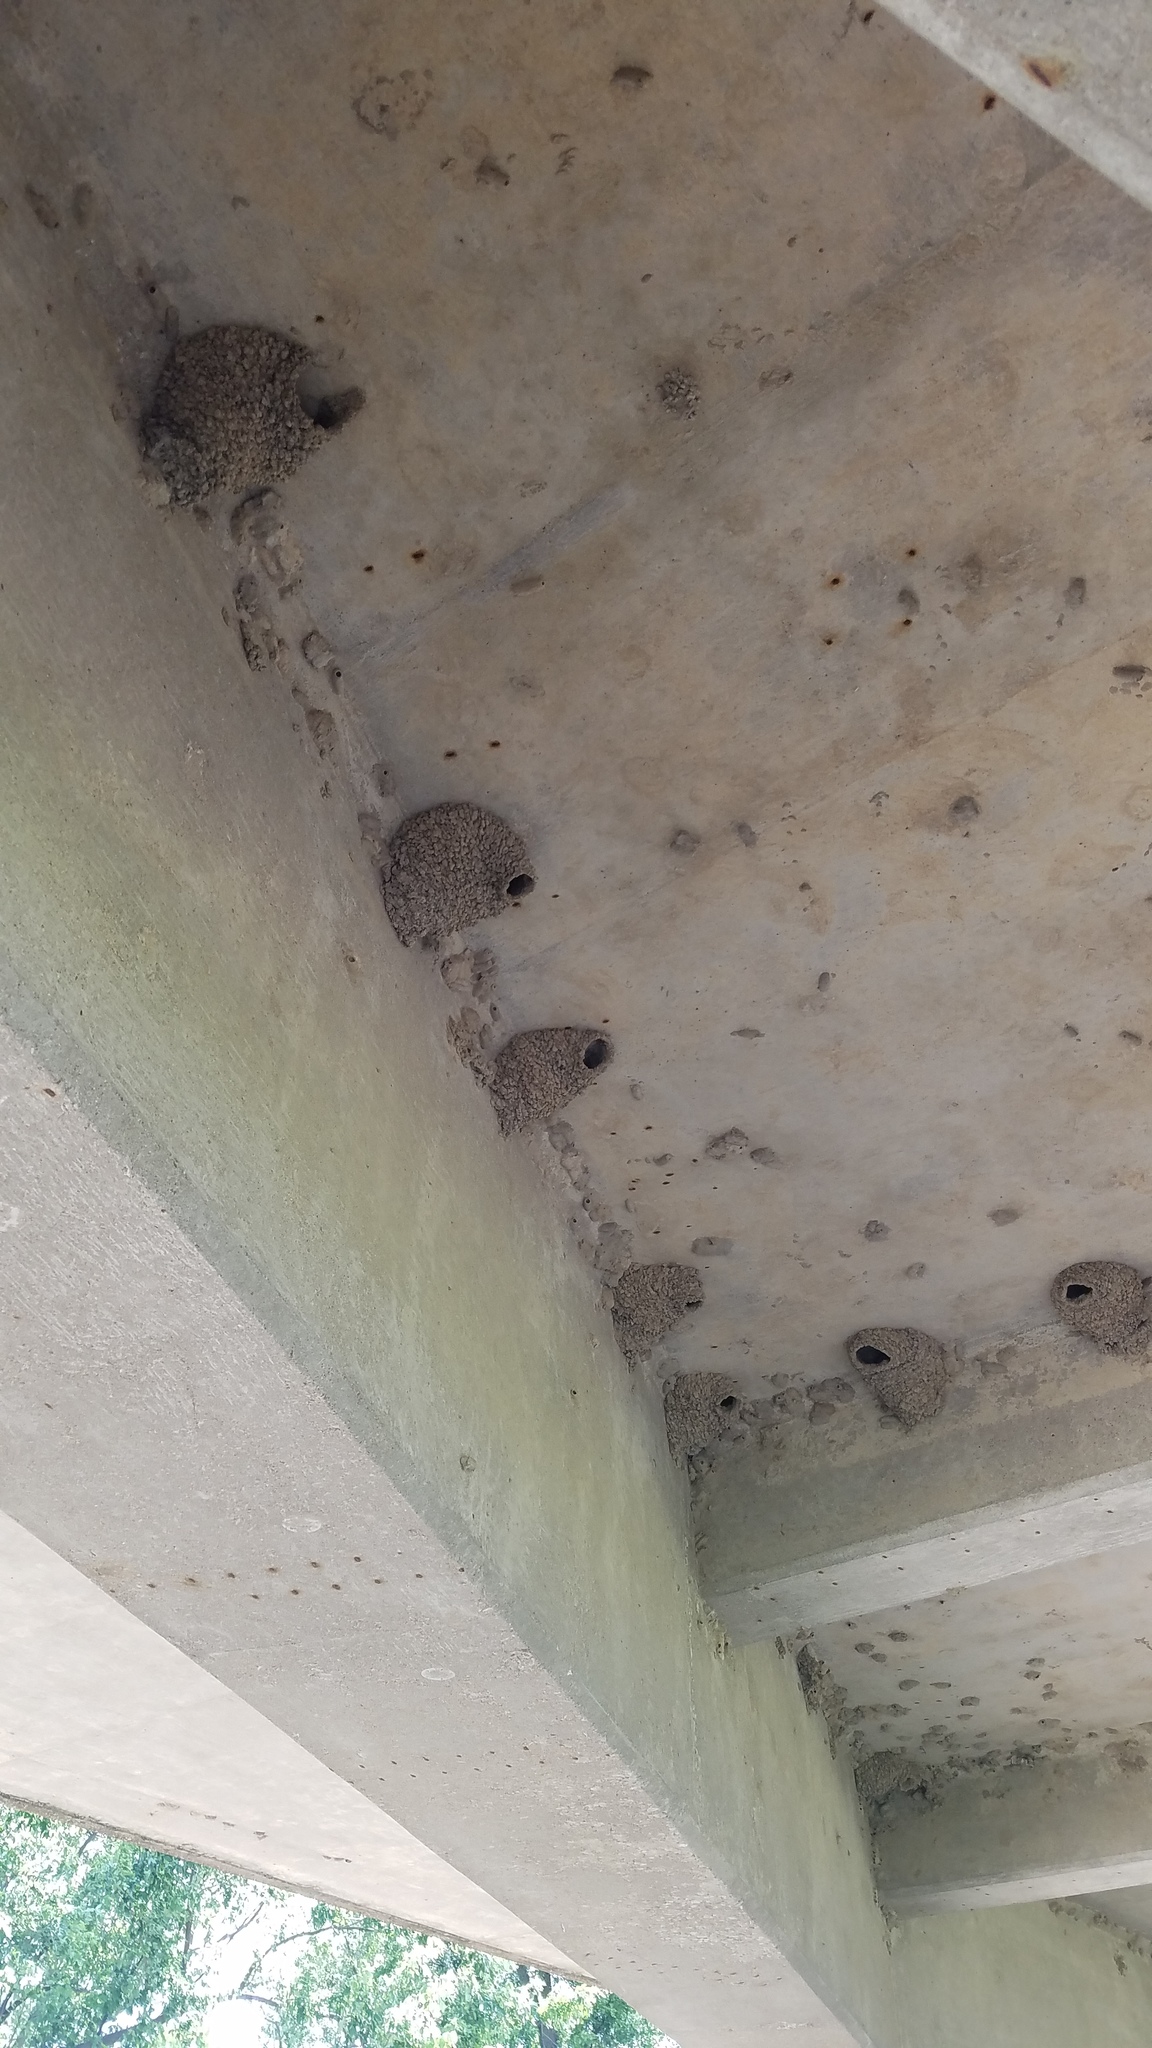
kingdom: Animalia
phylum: Chordata
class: Aves
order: Passeriformes
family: Hirundinidae
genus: Petrochelidon
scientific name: Petrochelidon pyrrhonota
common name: American cliff swallow
